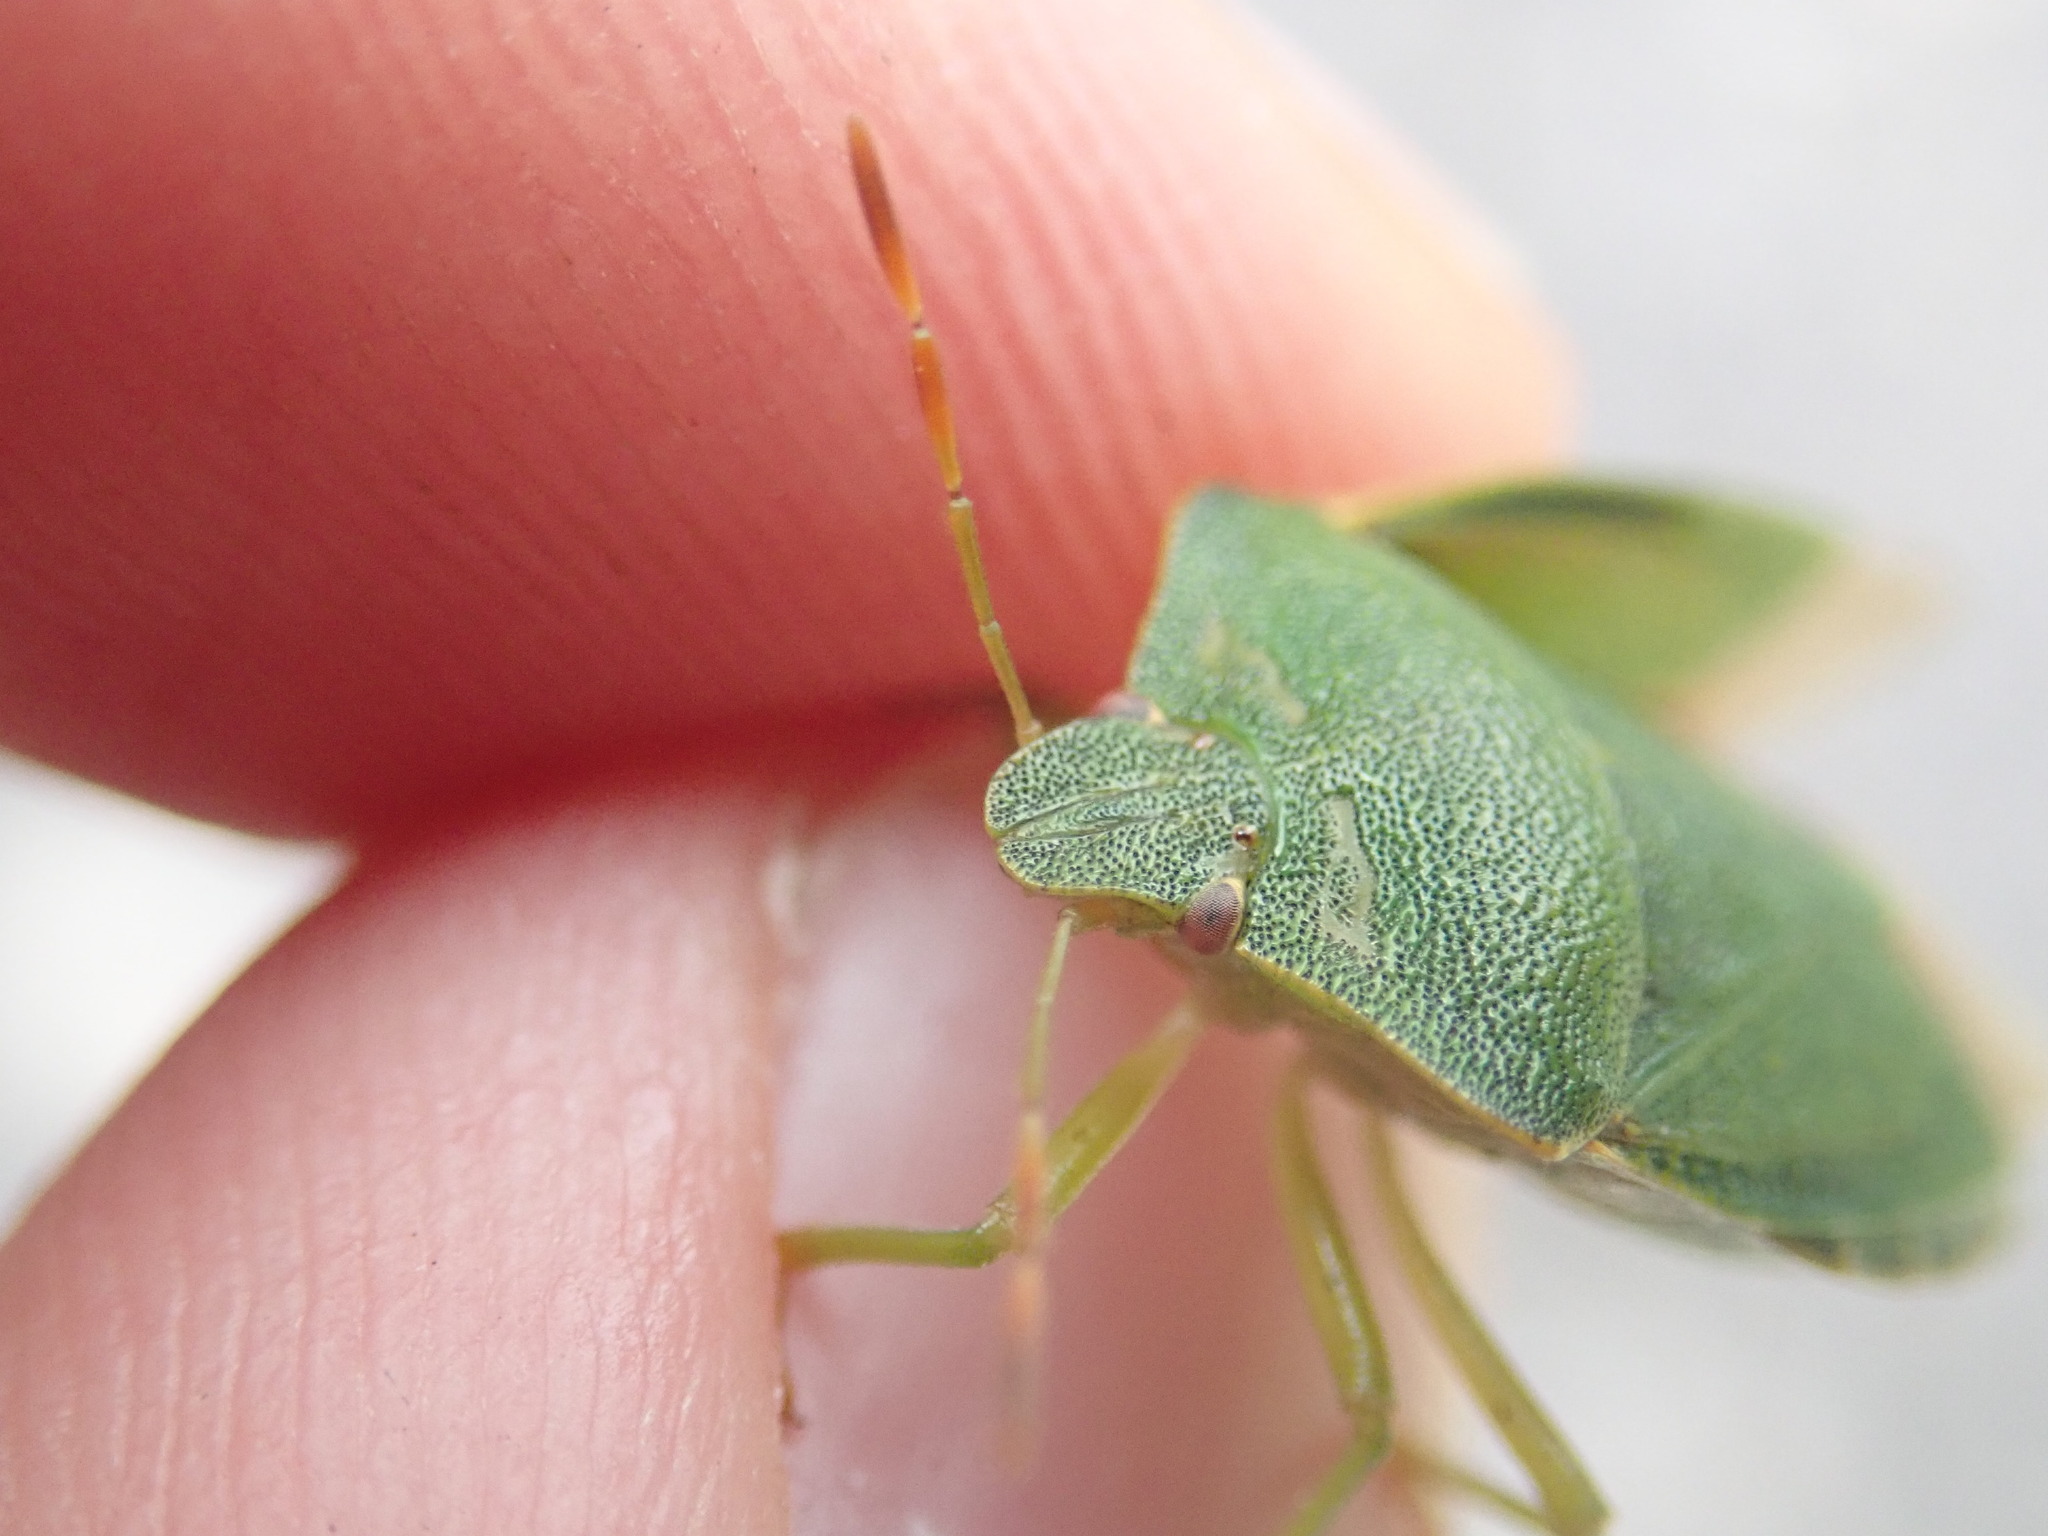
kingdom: Animalia
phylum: Arthropoda
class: Insecta
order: Hemiptera
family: Pentatomidae
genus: Palomena
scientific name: Palomena prasina
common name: Green shieldbug
